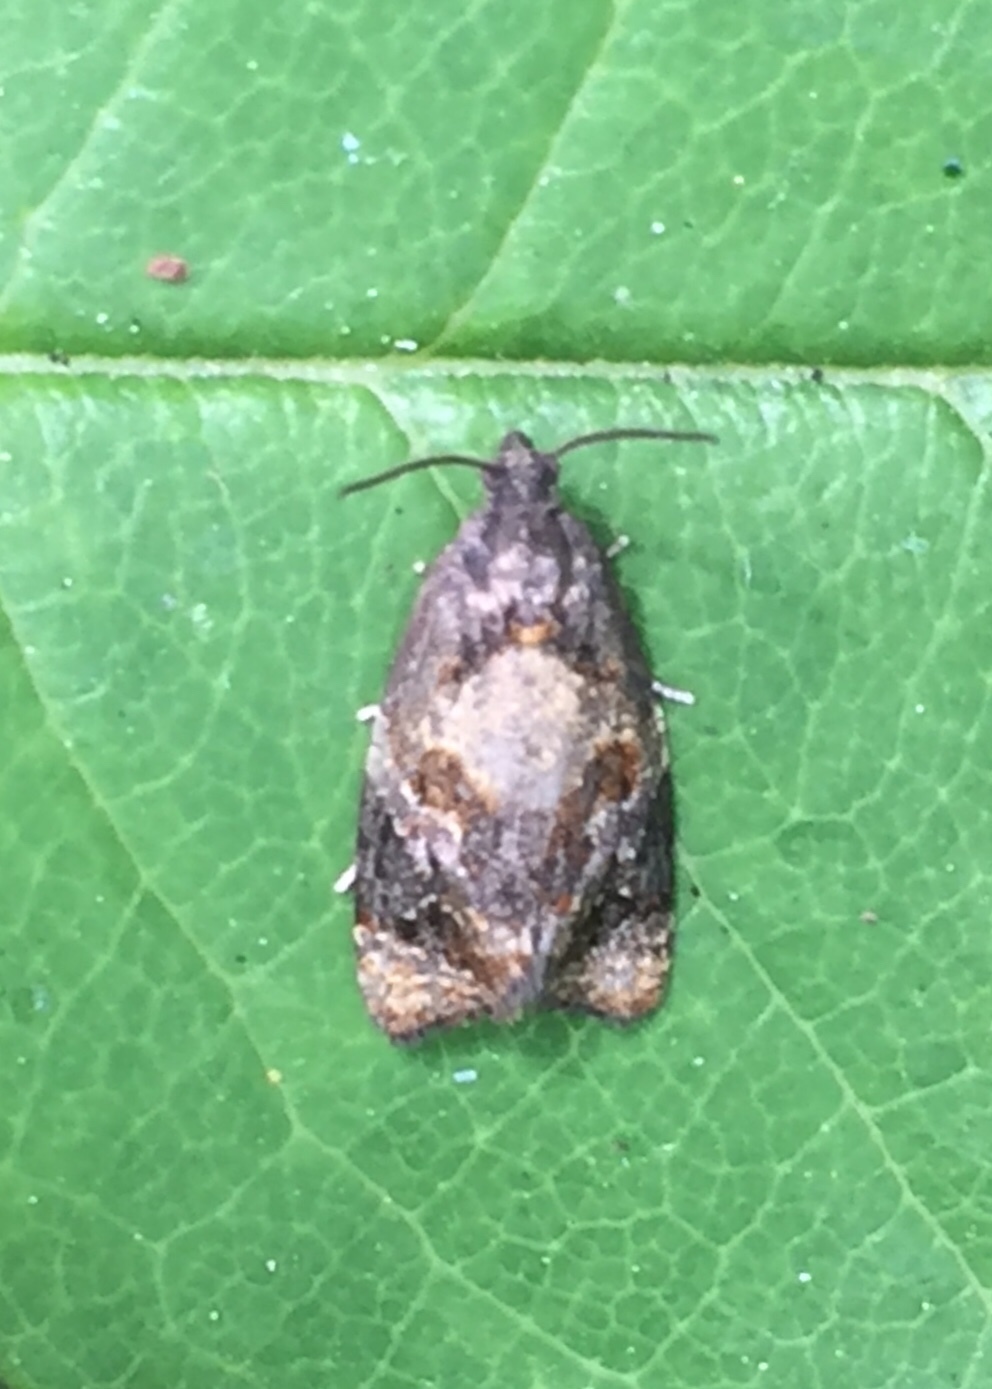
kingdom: Animalia
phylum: Arthropoda
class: Insecta
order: Lepidoptera
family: Tortricidae
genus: Ditula
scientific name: Ditula angustiorana
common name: Red-barred tortrix
